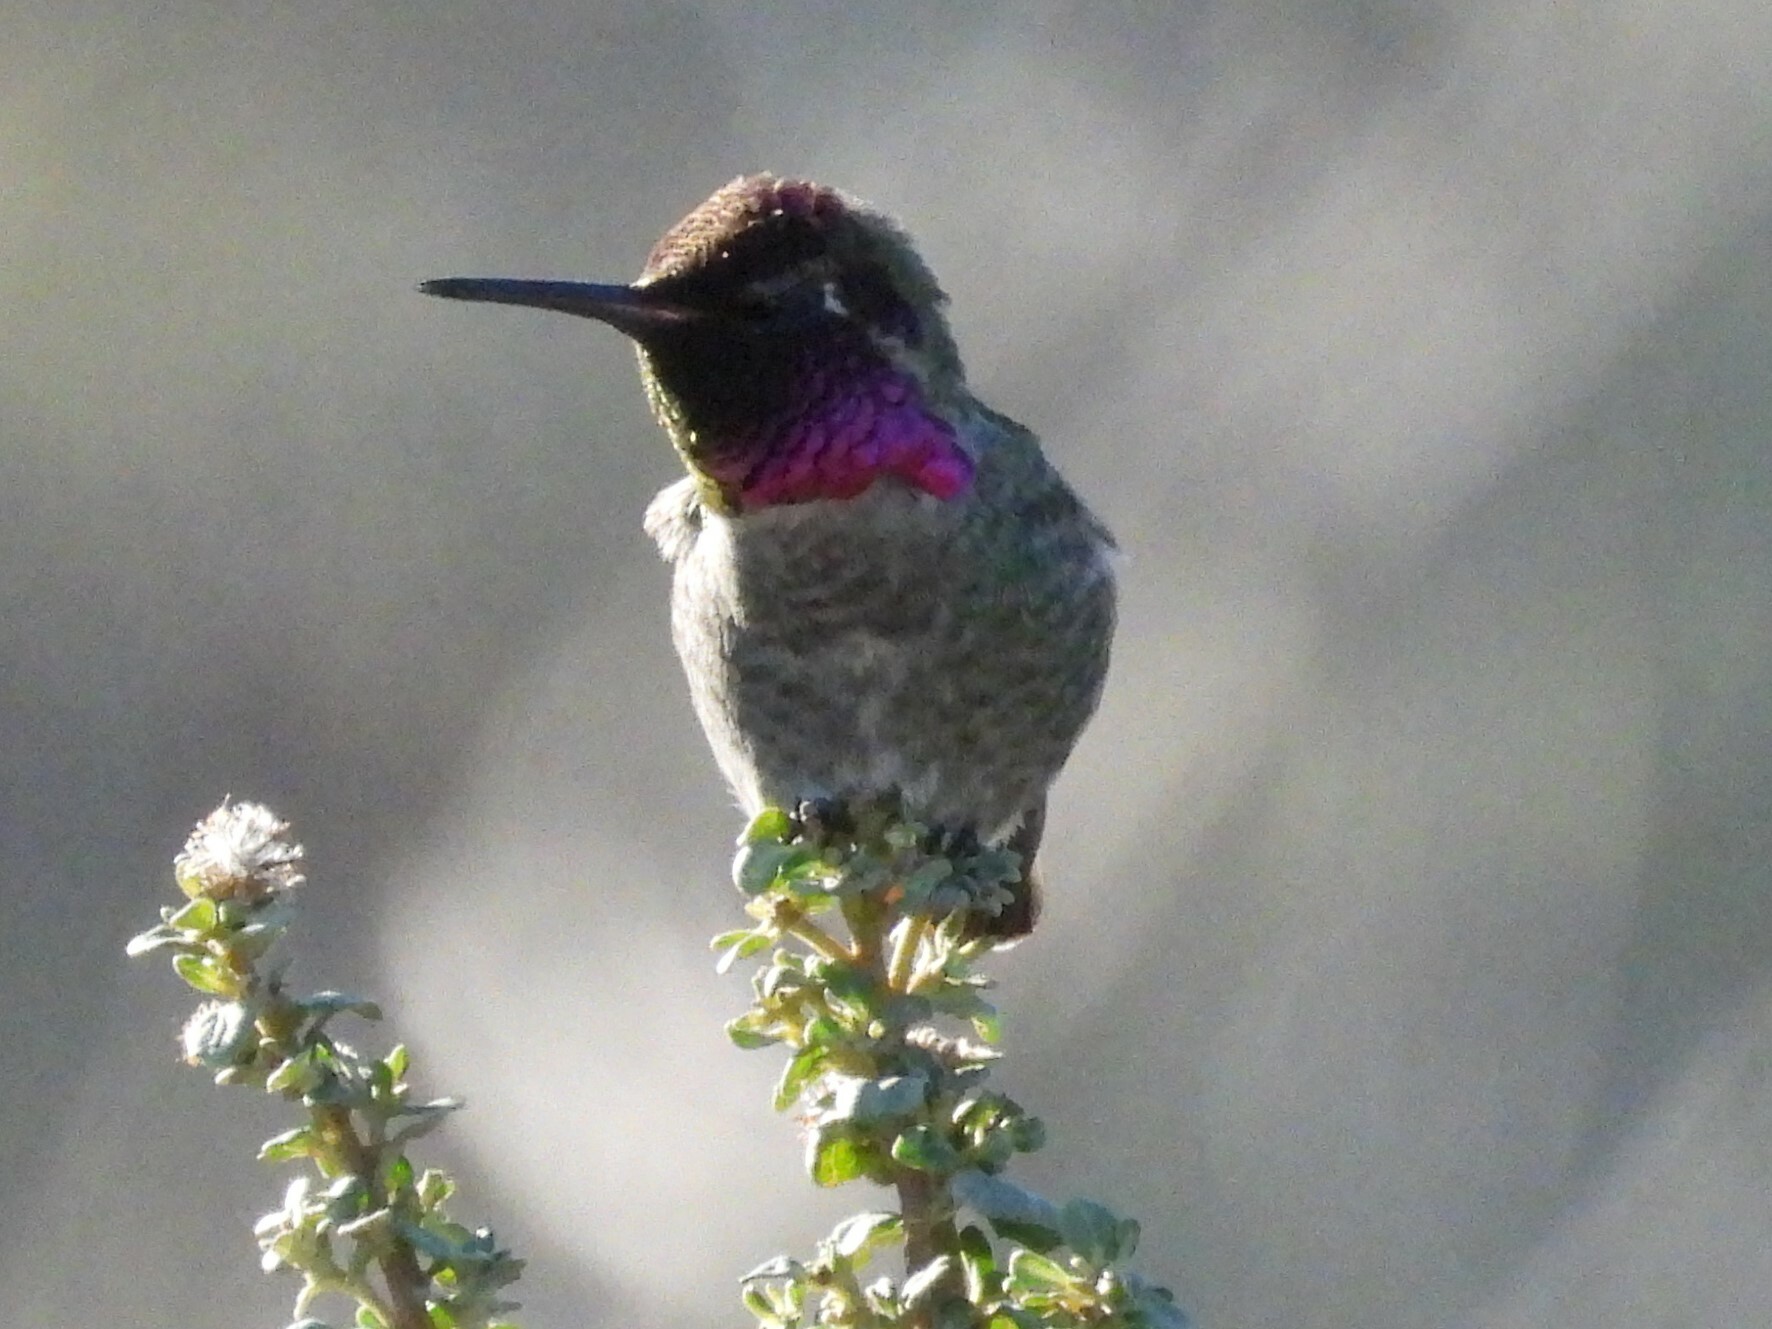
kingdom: Animalia
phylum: Chordata
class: Aves
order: Apodiformes
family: Trochilidae
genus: Calypte
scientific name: Calypte anna
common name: Anna's hummingbird
